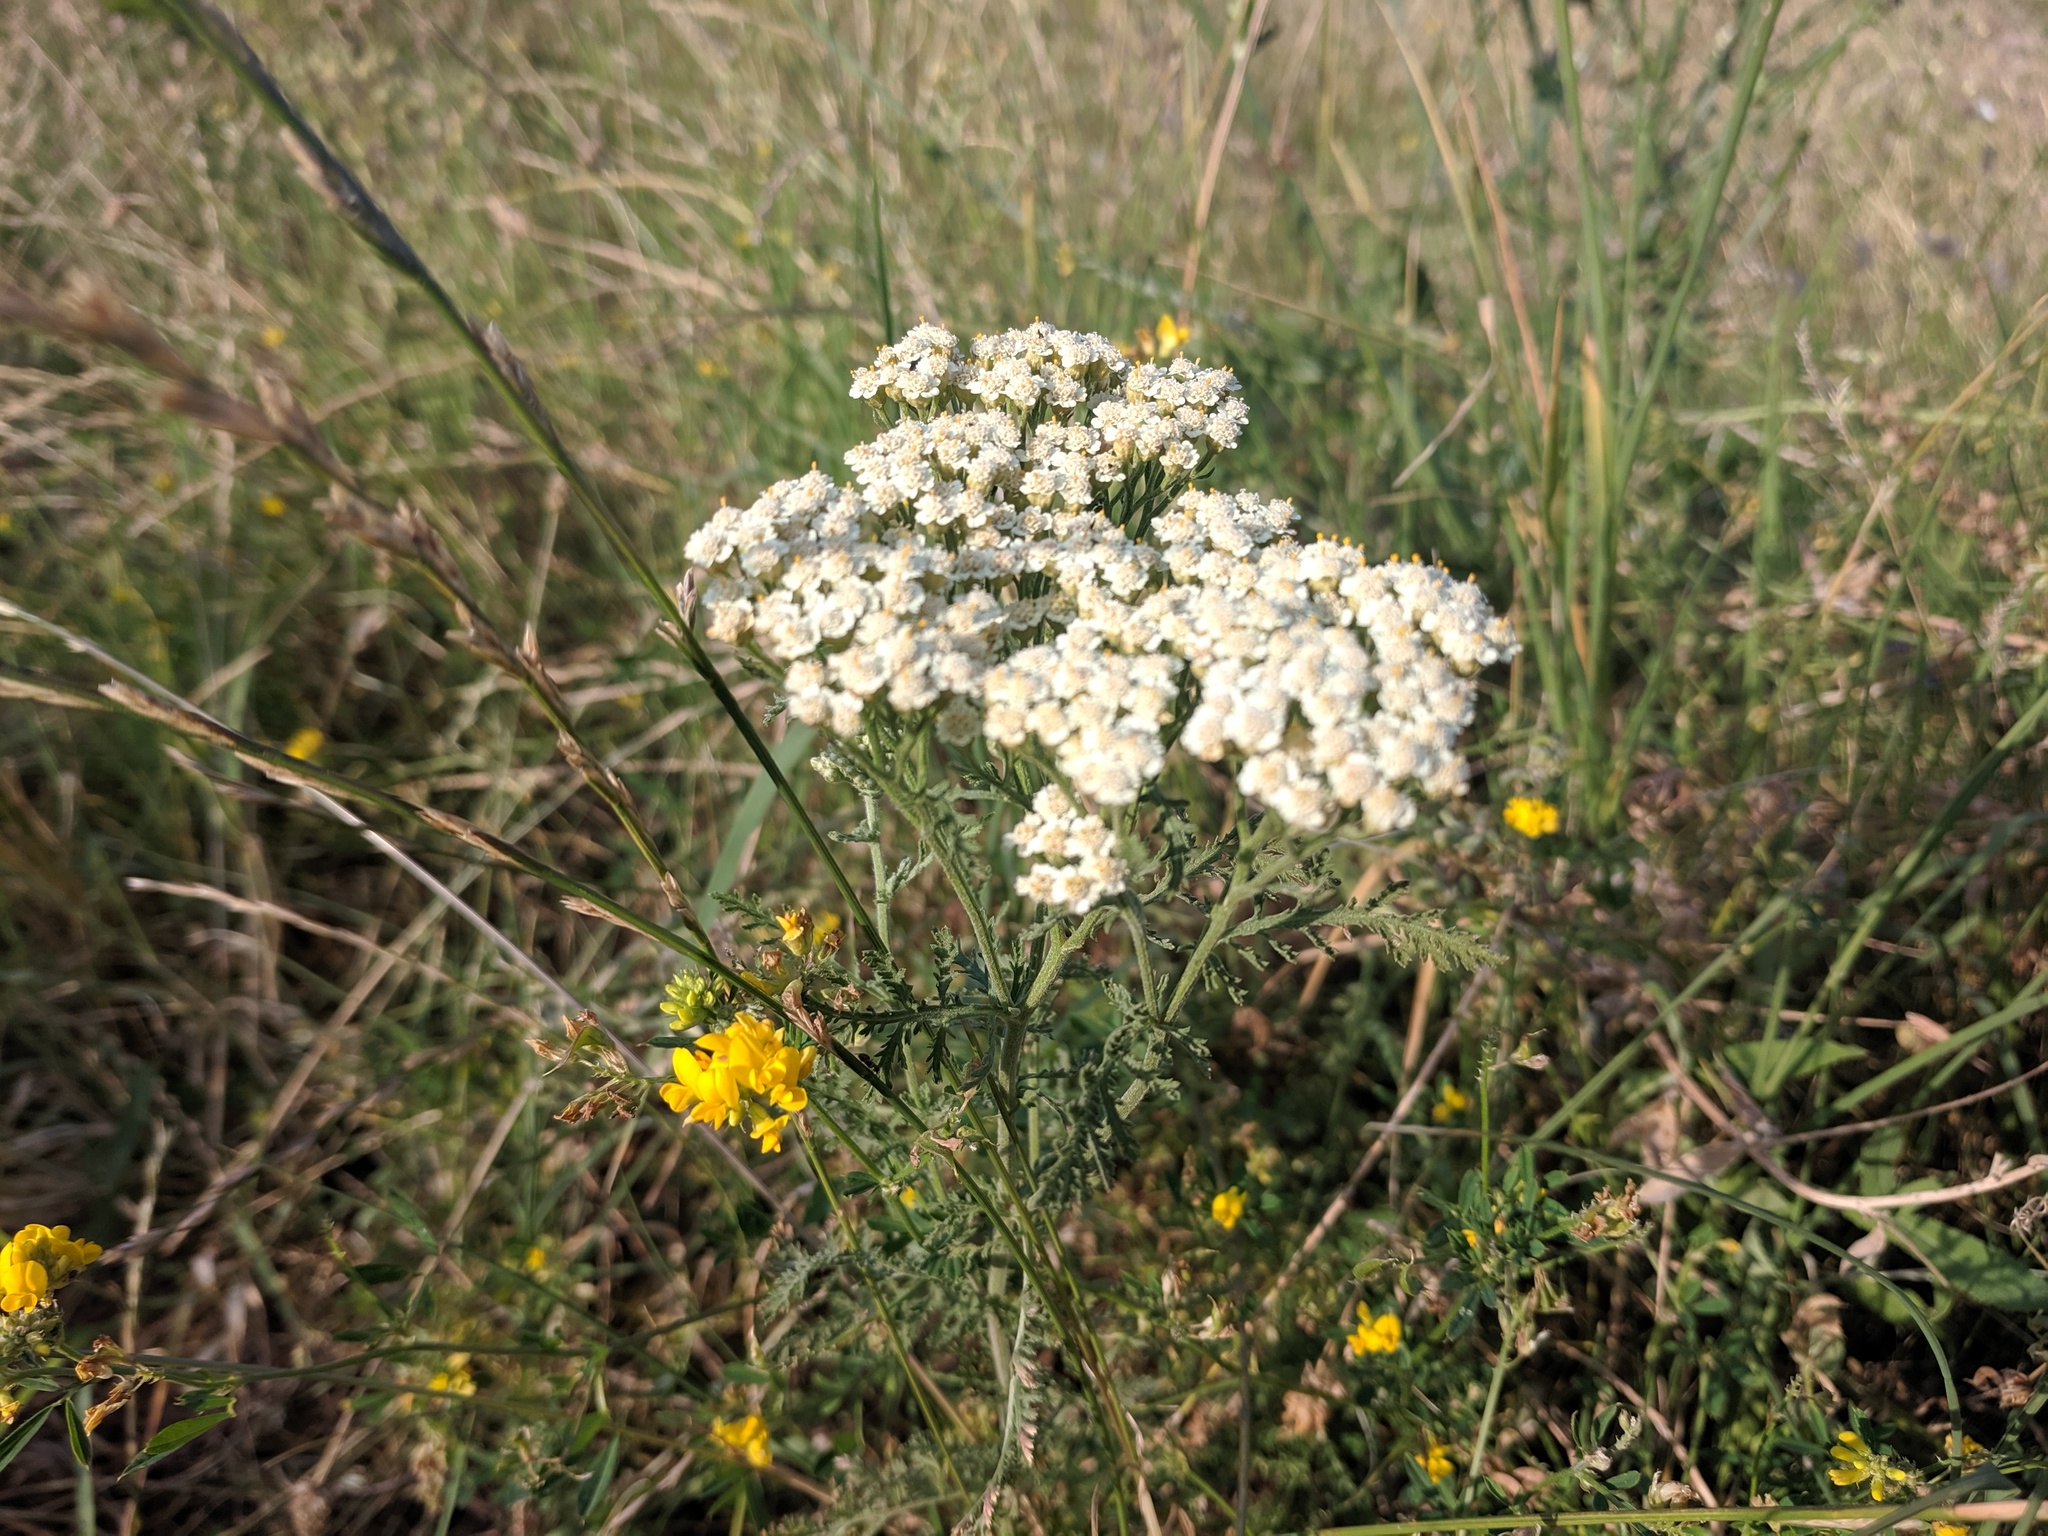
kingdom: Plantae
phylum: Tracheophyta
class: Magnoliopsida
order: Asterales
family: Asteraceae
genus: Achillea
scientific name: Achillea millefolium
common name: Yarrow
